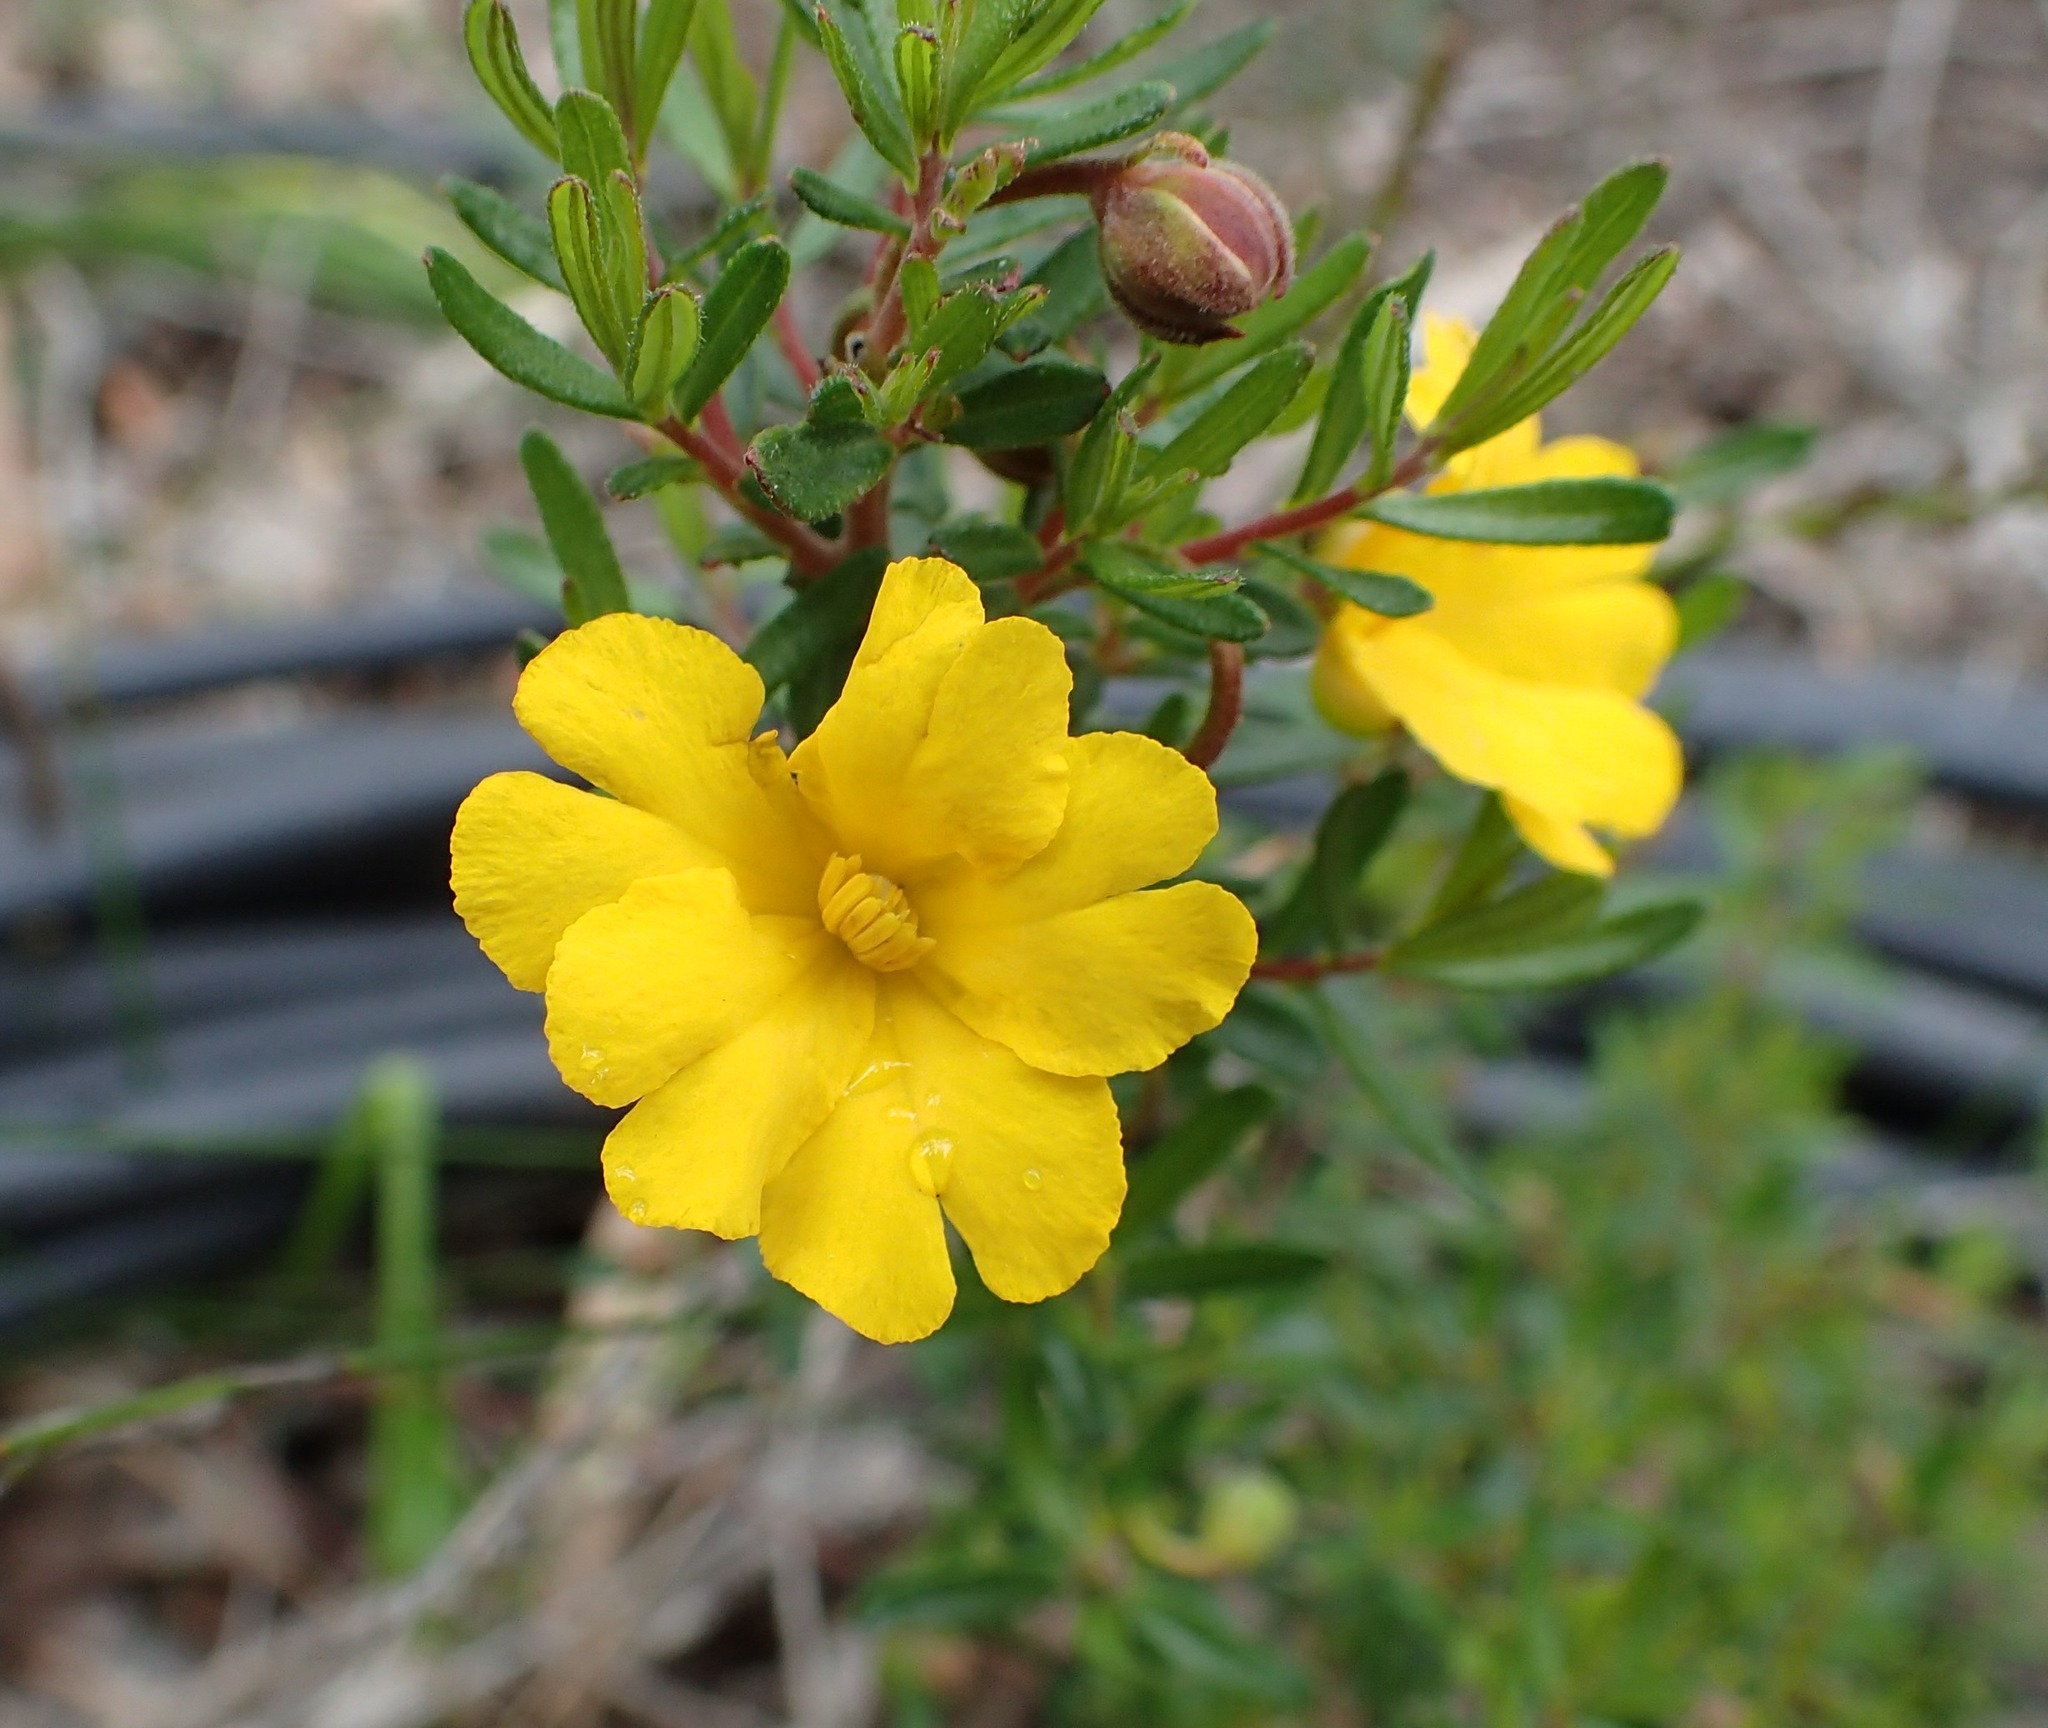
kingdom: Plantae
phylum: Tracheophyta
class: Magnoliopsida
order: Dilleniales
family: Dilleniaceae
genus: Hibbertia
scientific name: Hibbertia hypericoides
